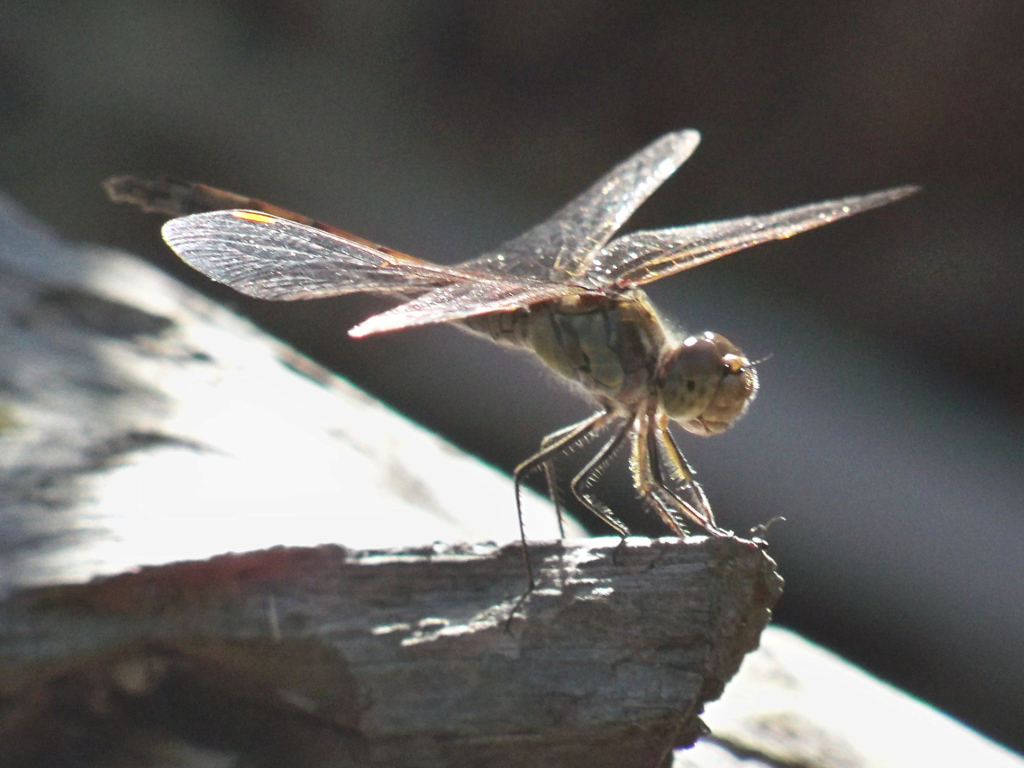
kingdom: Animalia
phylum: Arthropoda
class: Insecta
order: Odonata
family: Libellulidae
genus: Sympetrum
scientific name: Sympetrum striolatum
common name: Common darter
